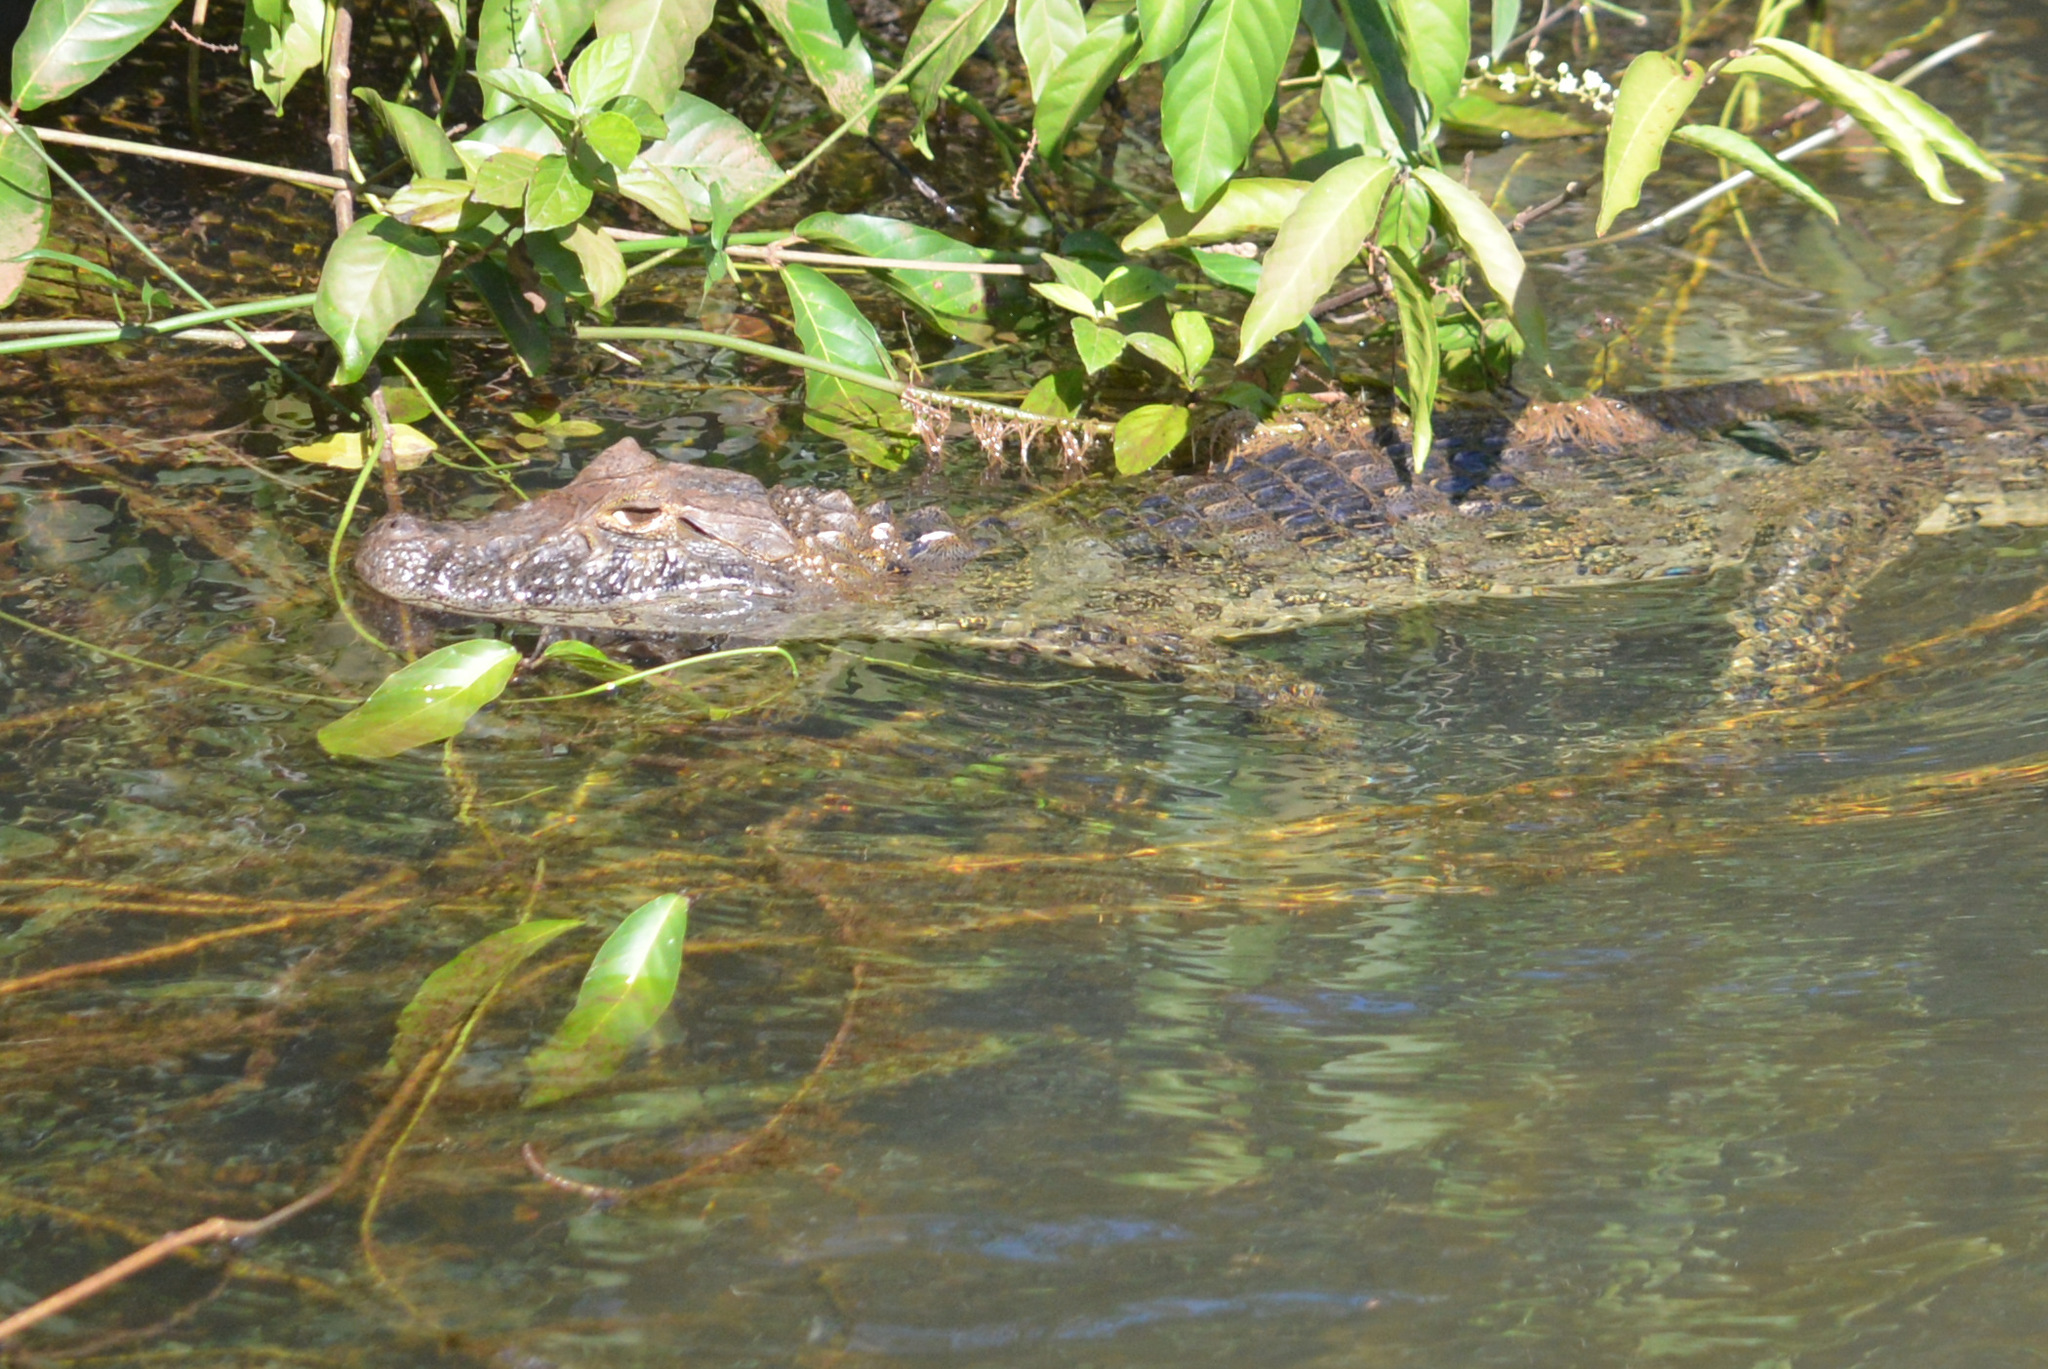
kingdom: Animalia
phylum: Chordata
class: Crocodylia
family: Alligatoridae
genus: Caiman
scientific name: Caiman latirostris
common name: Broad-snouted caiman
